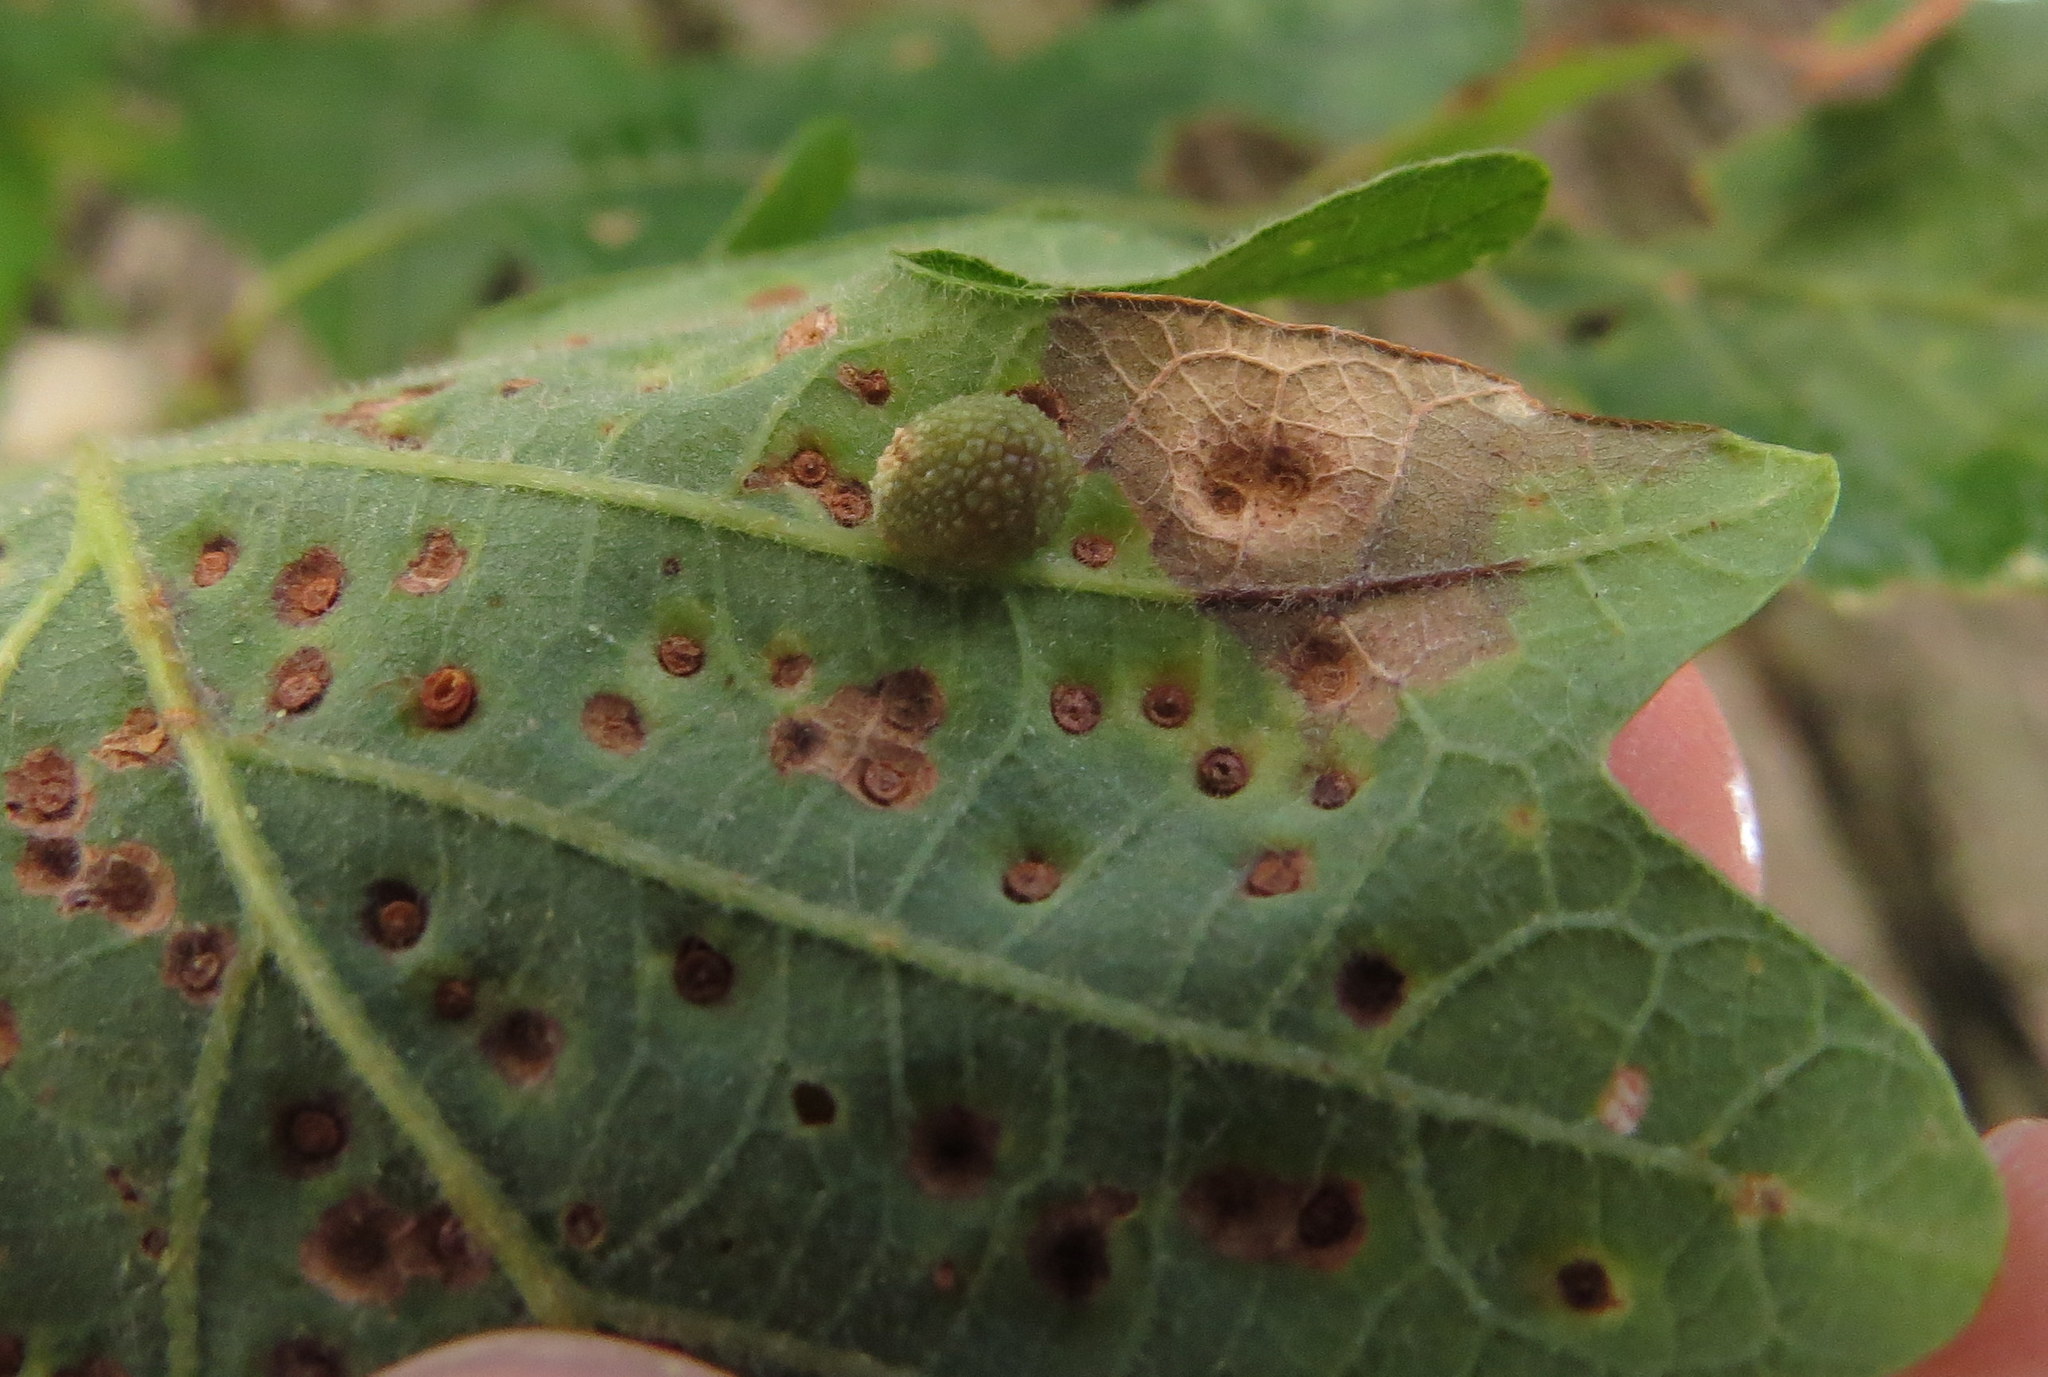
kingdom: Animalia
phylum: Arthropoda
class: Insecta
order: Hymenoptera
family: Cynipidae
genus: Acraspis
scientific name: Acraspis quercushirta
